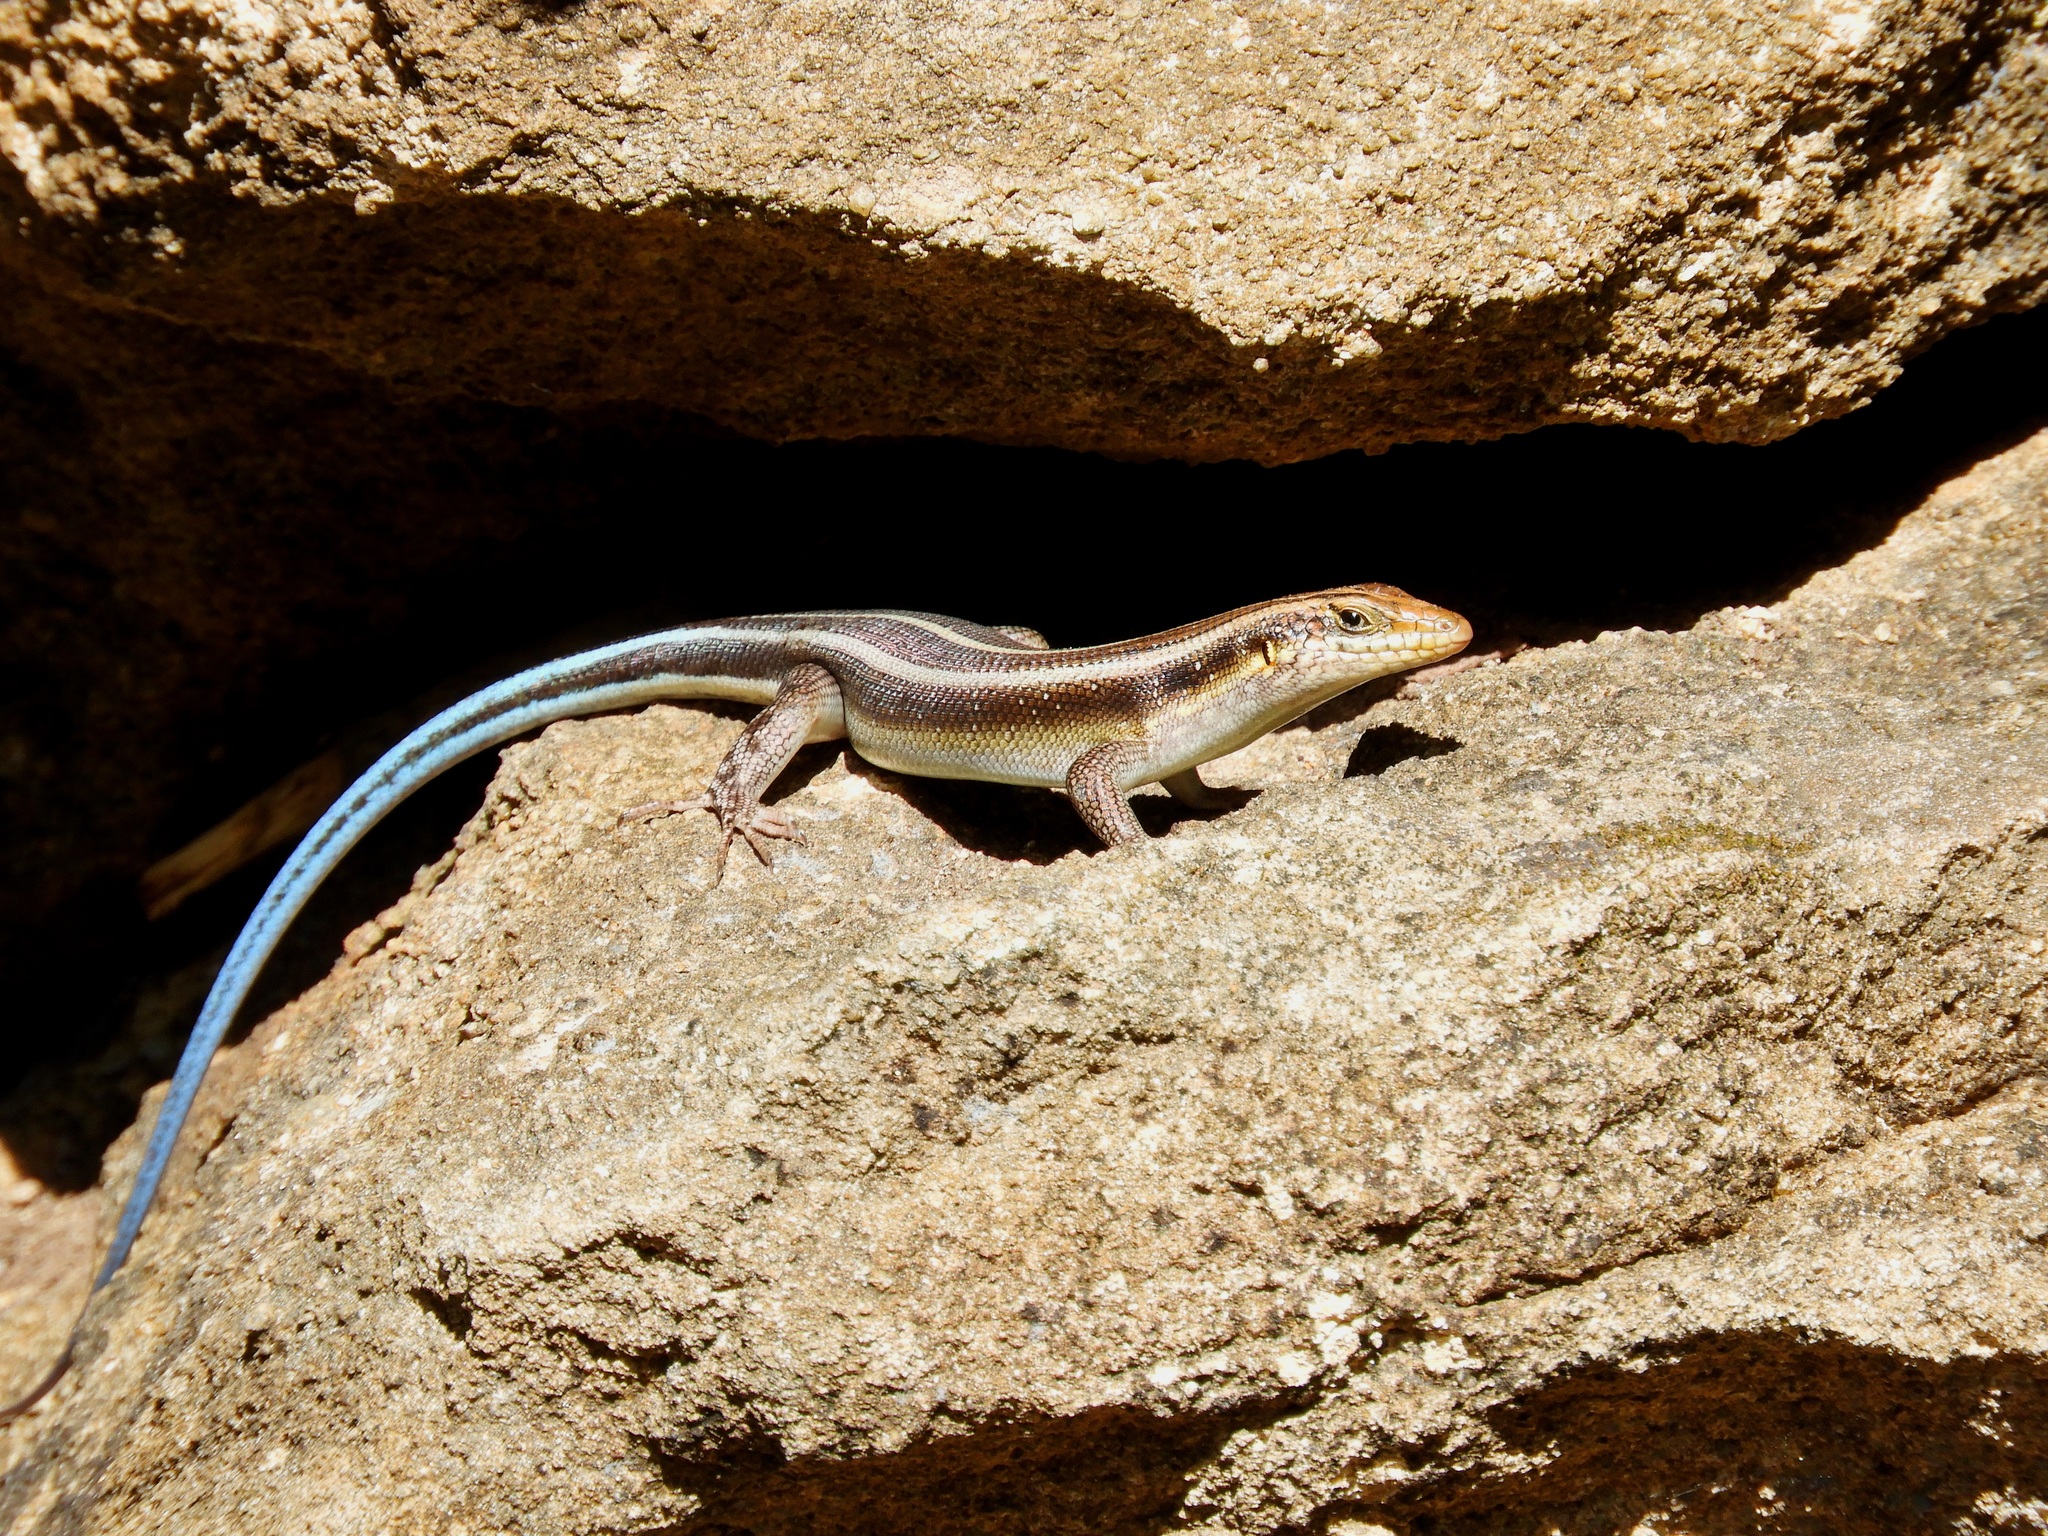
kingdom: Animalia
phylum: Chordata
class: Squamata
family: Scincidae
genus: Trachylepis
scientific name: Trachylepis margaritifera
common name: Rainbow skink
